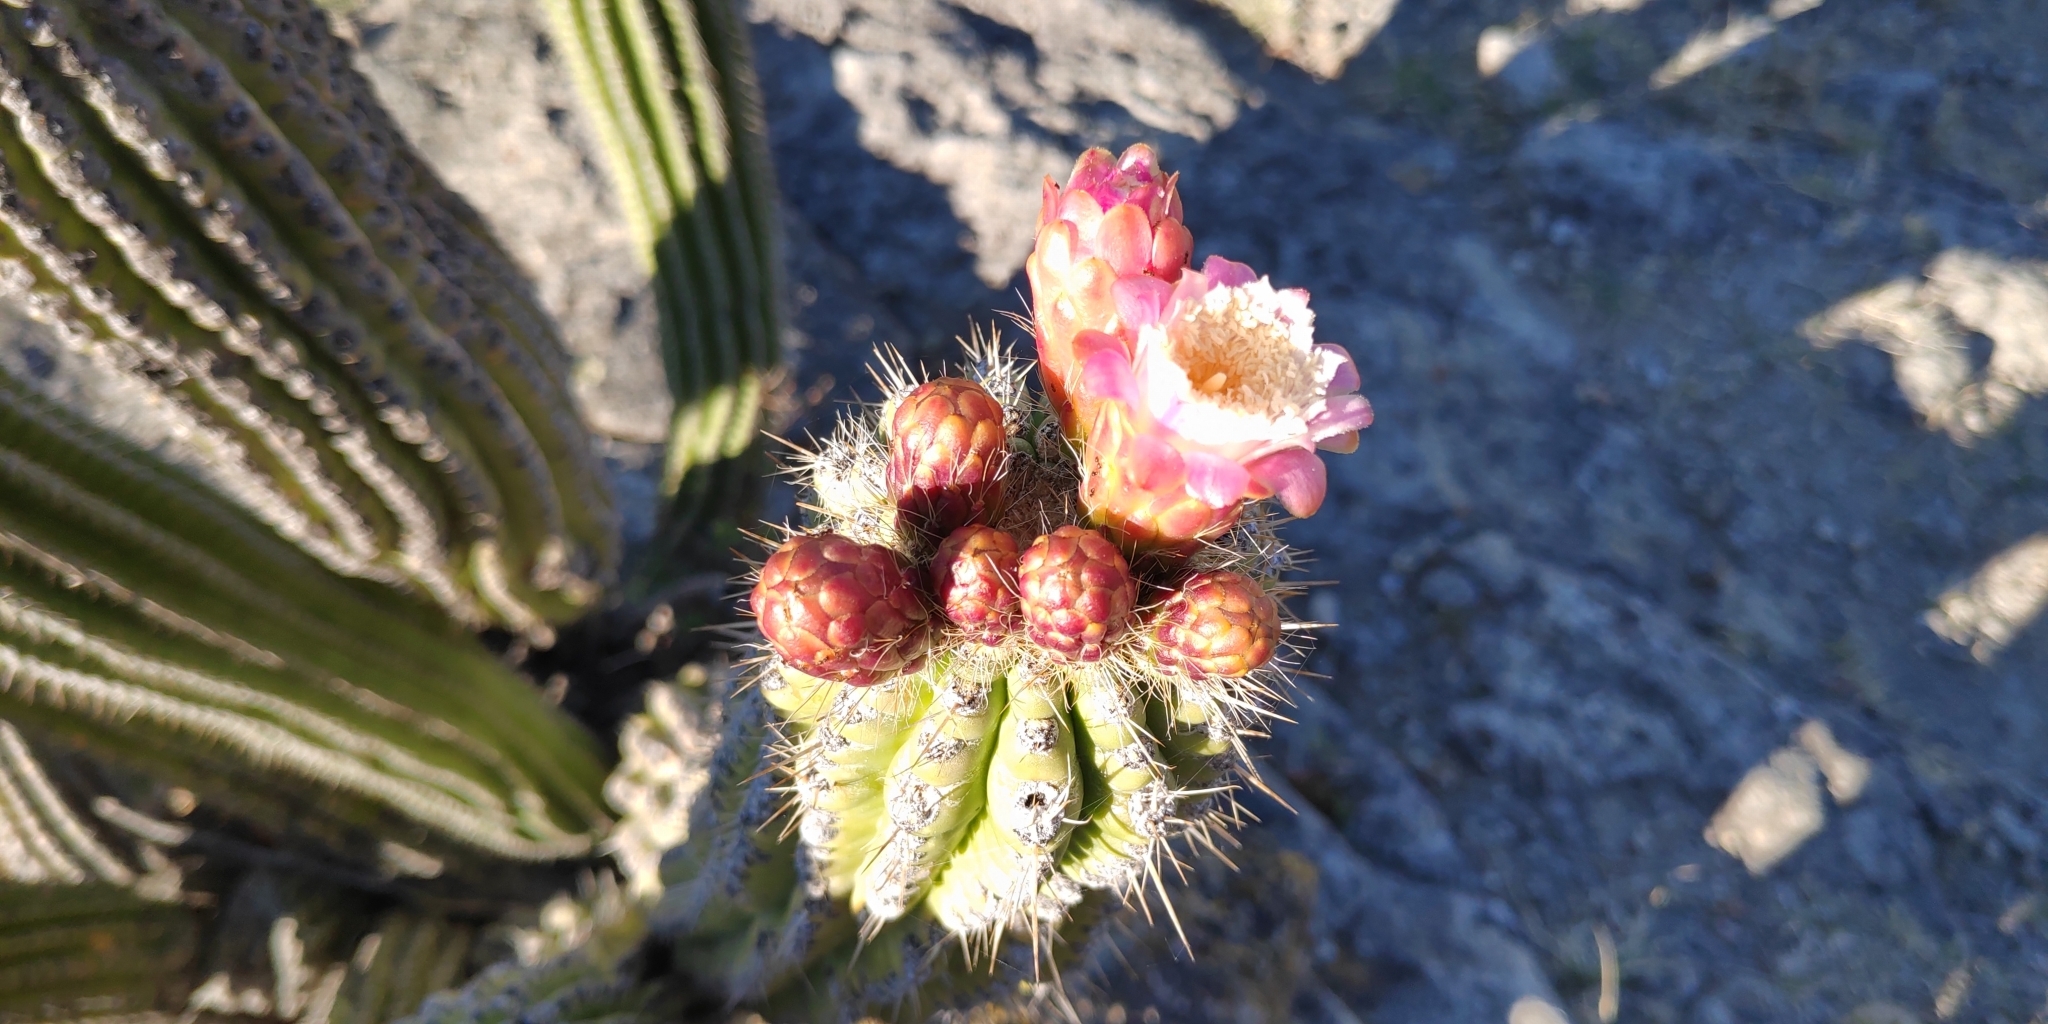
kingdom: Plantae
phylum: Tracheophyta
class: Magnoliopsida
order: Caryophyllales
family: Cactaceae
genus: Stenocereus
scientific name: Stenocereus treleasei
